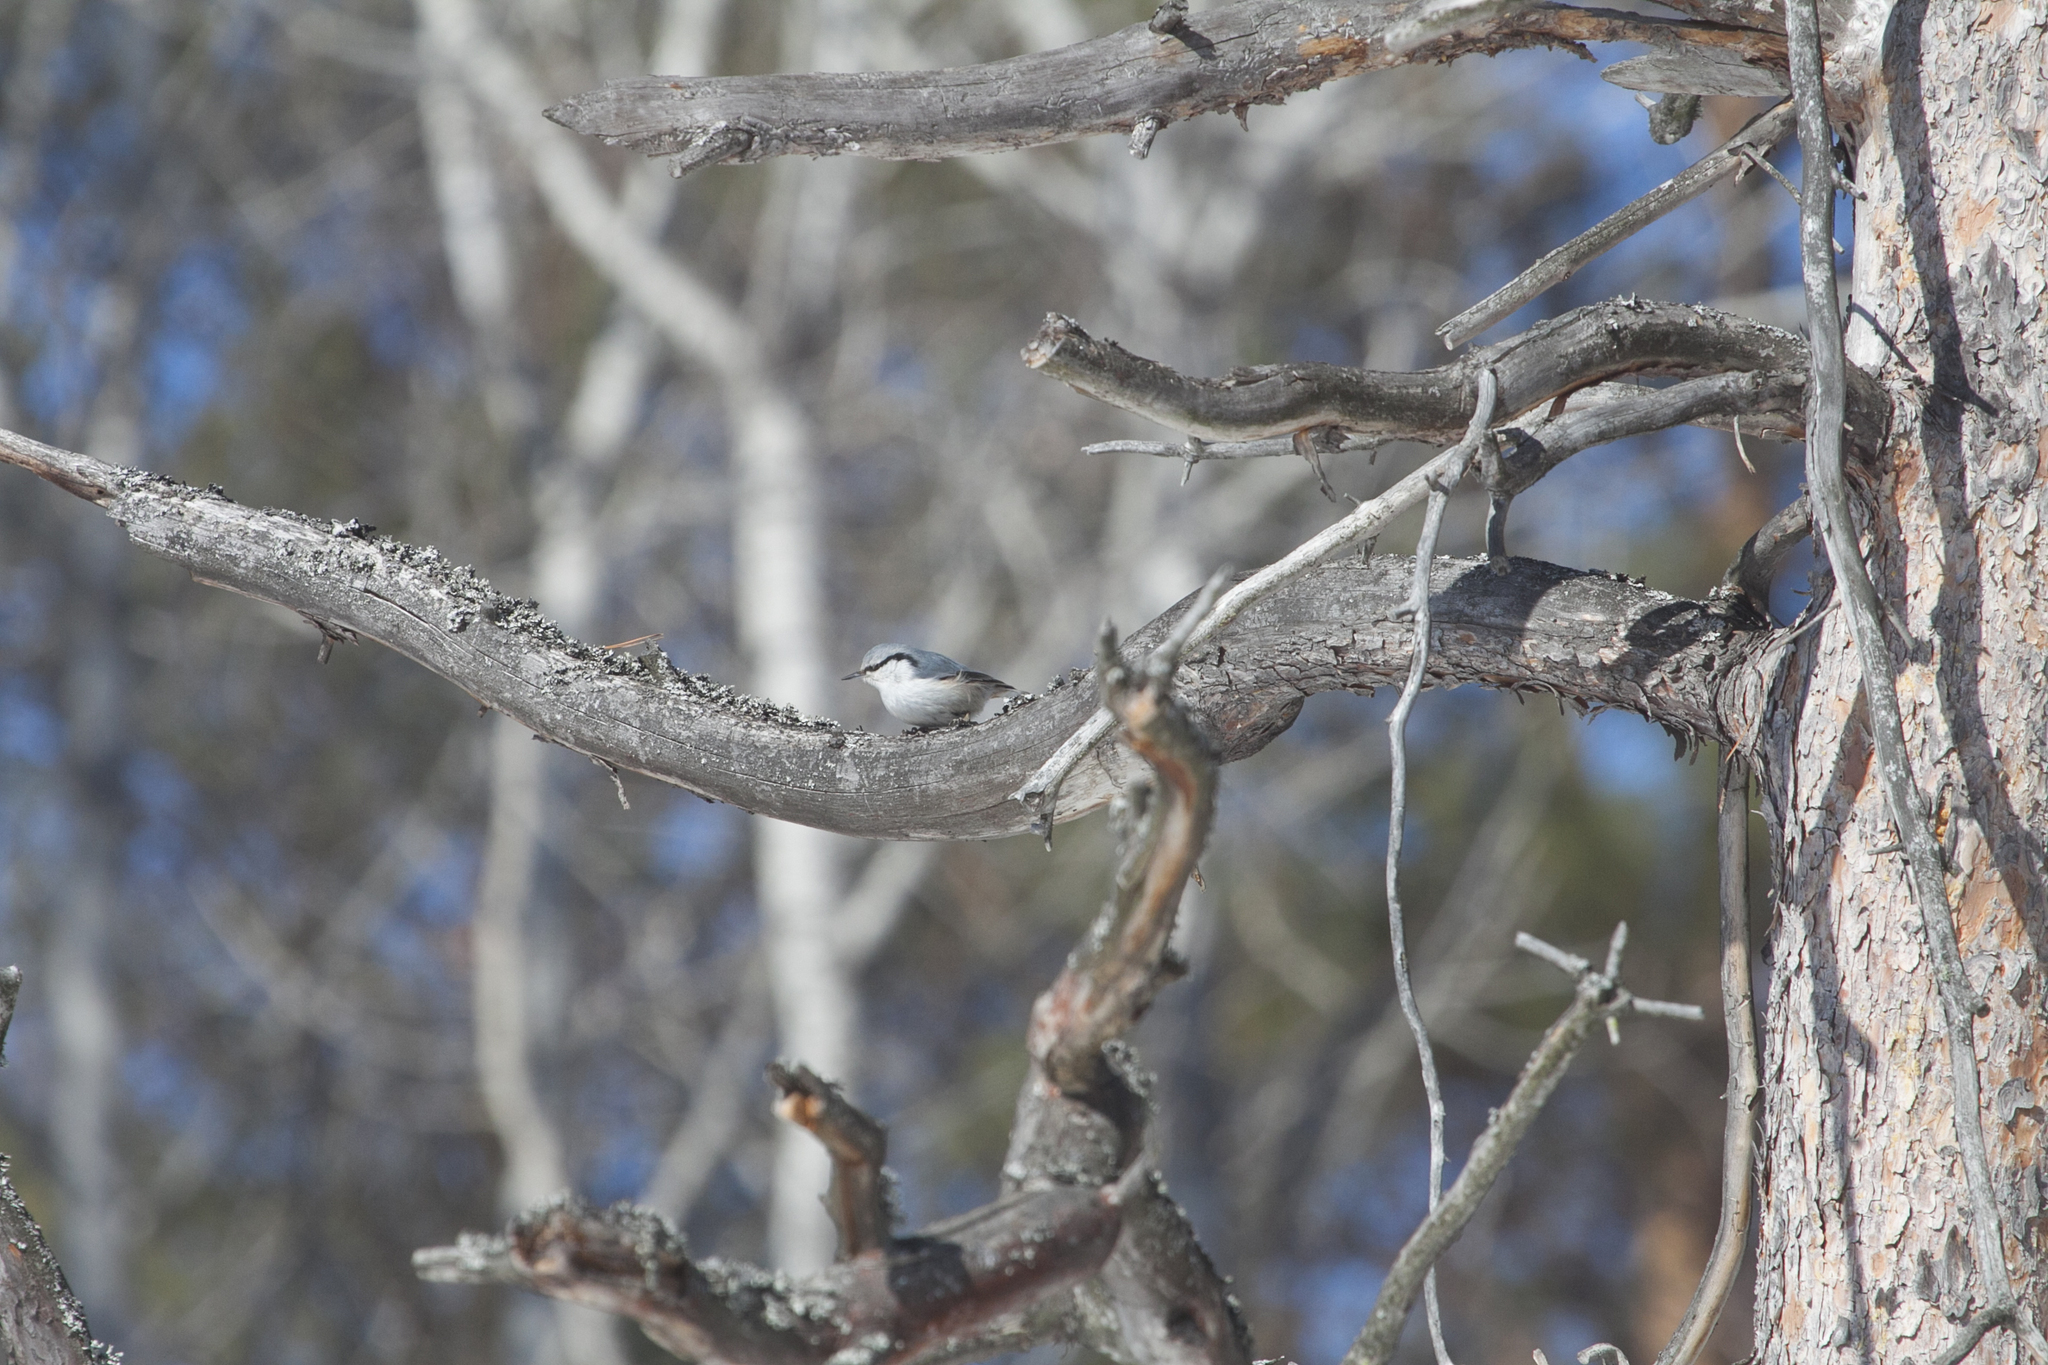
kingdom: Animalia
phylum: Chordata
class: Aves
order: Passeriformes
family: Sittidae
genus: Sitta
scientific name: Sitta europaea
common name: Eurasian nuthatch
